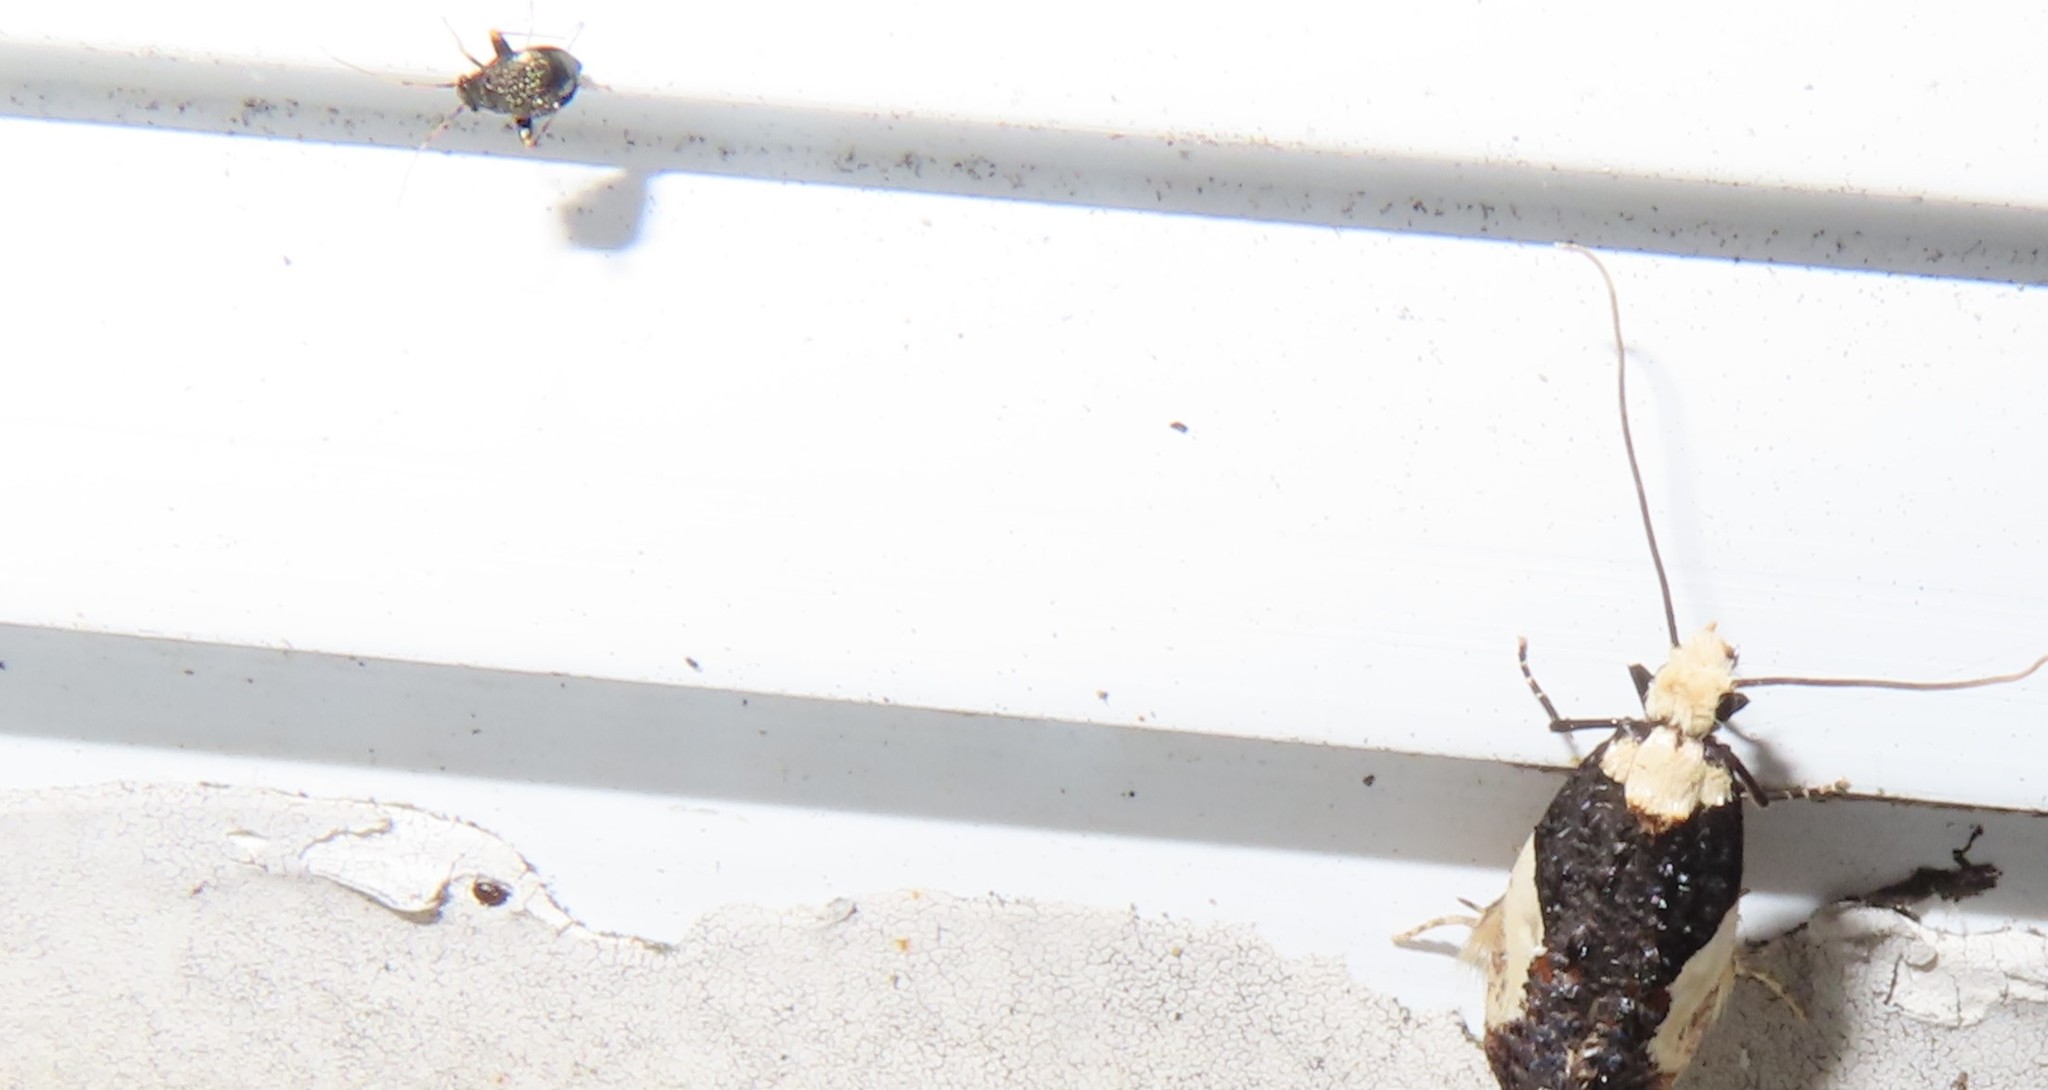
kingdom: Animalia
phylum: Arthropoda
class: Insecta
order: Hemiptera
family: Miridae
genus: Microtechnites
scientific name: Microtechnites bractatus
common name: Garden fleahopper
